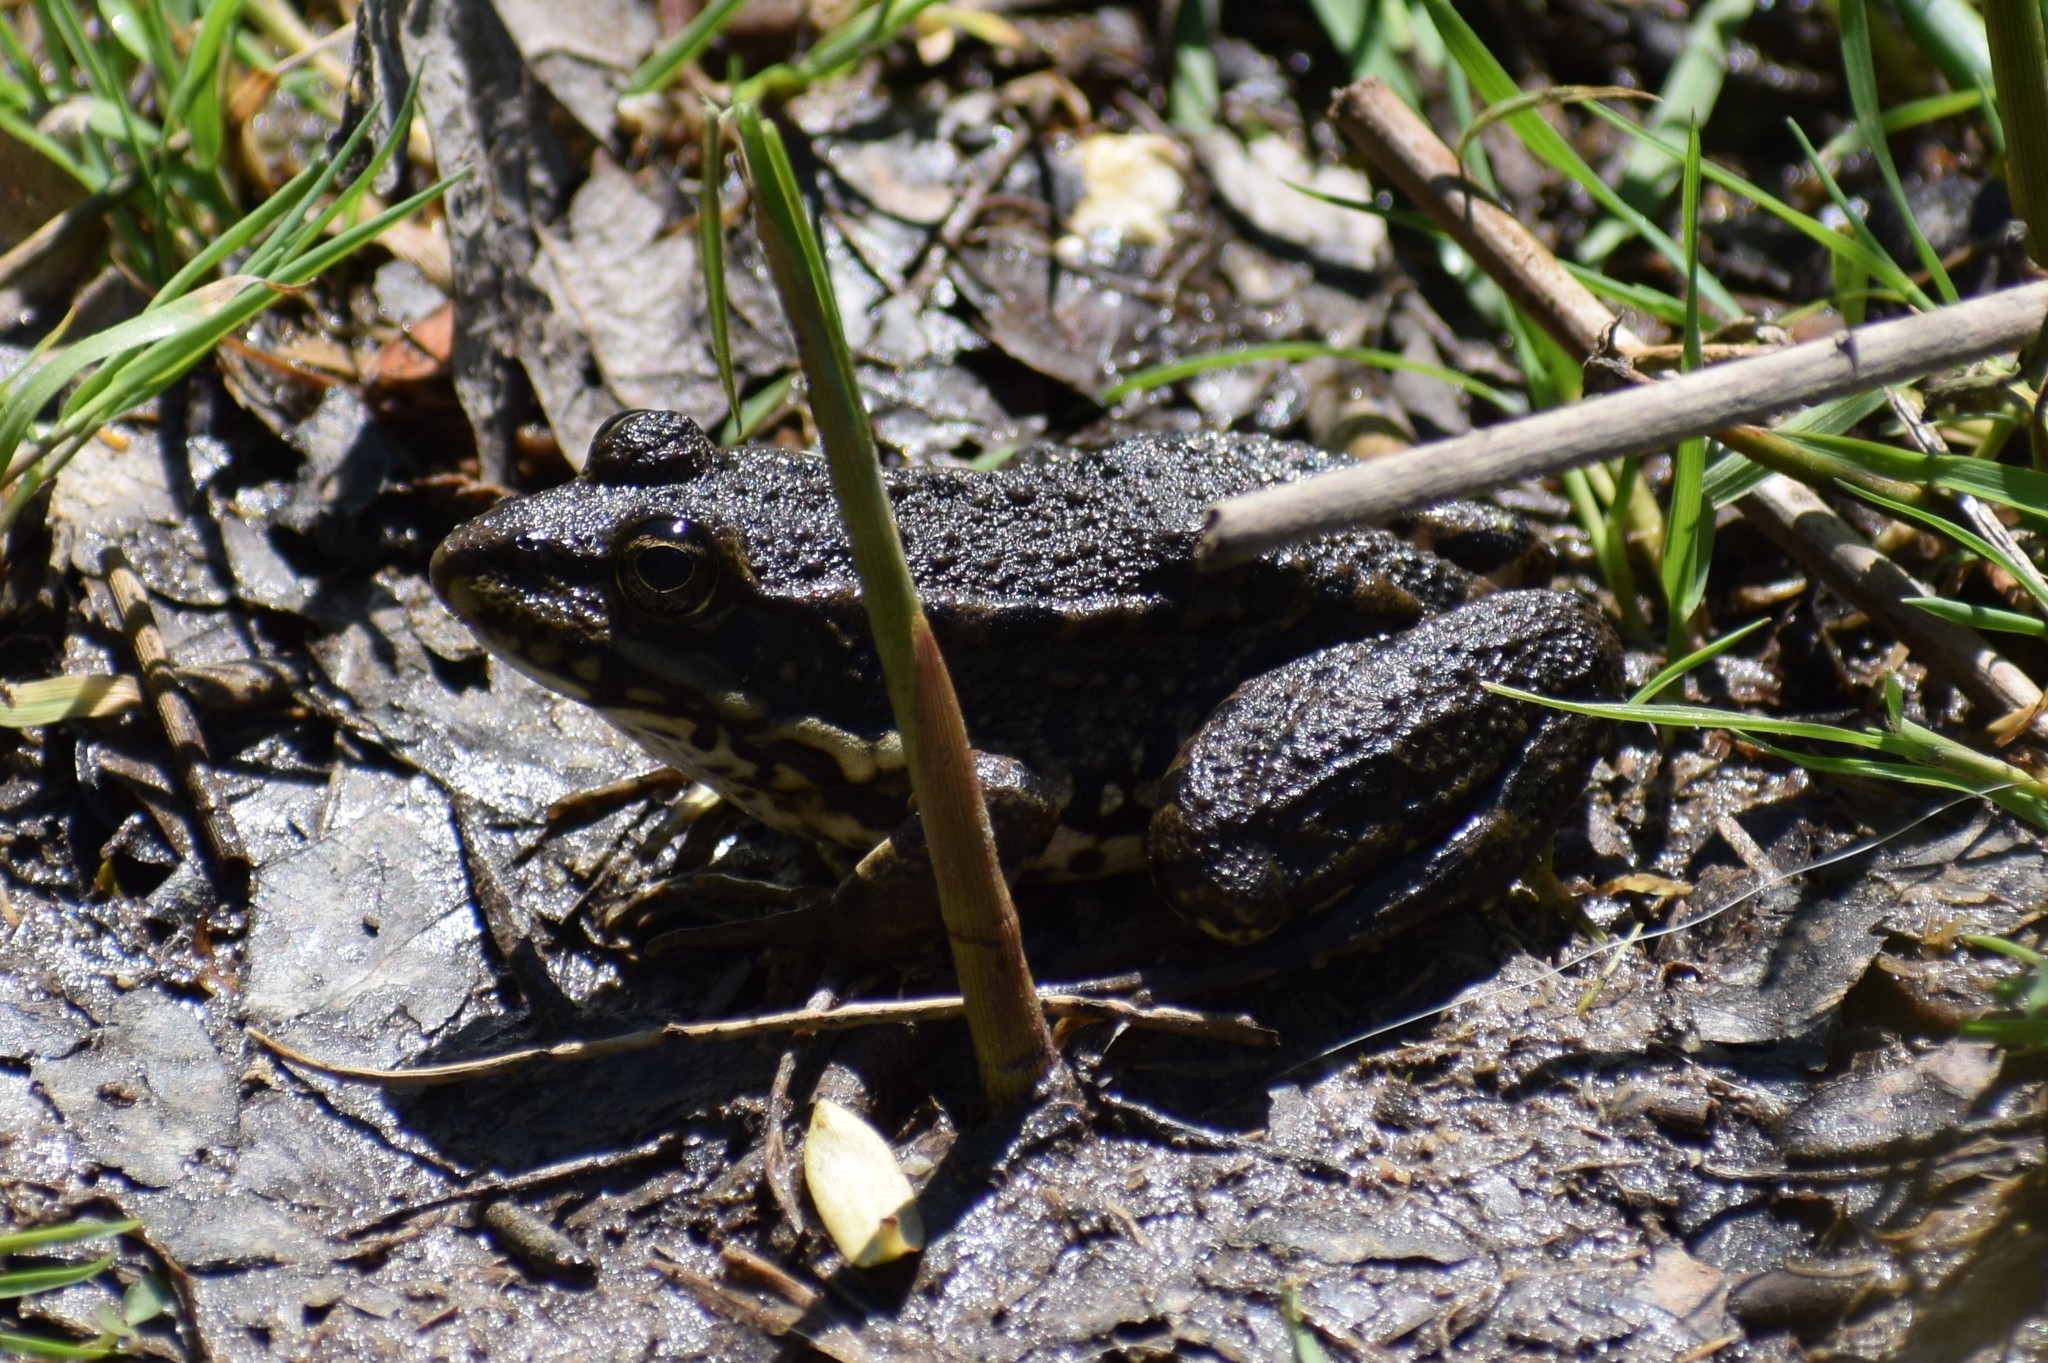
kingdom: Animalia
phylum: Chordata
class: Amphibia
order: Anura
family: Ranidae
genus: Pelophylax
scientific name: Pelophylax
